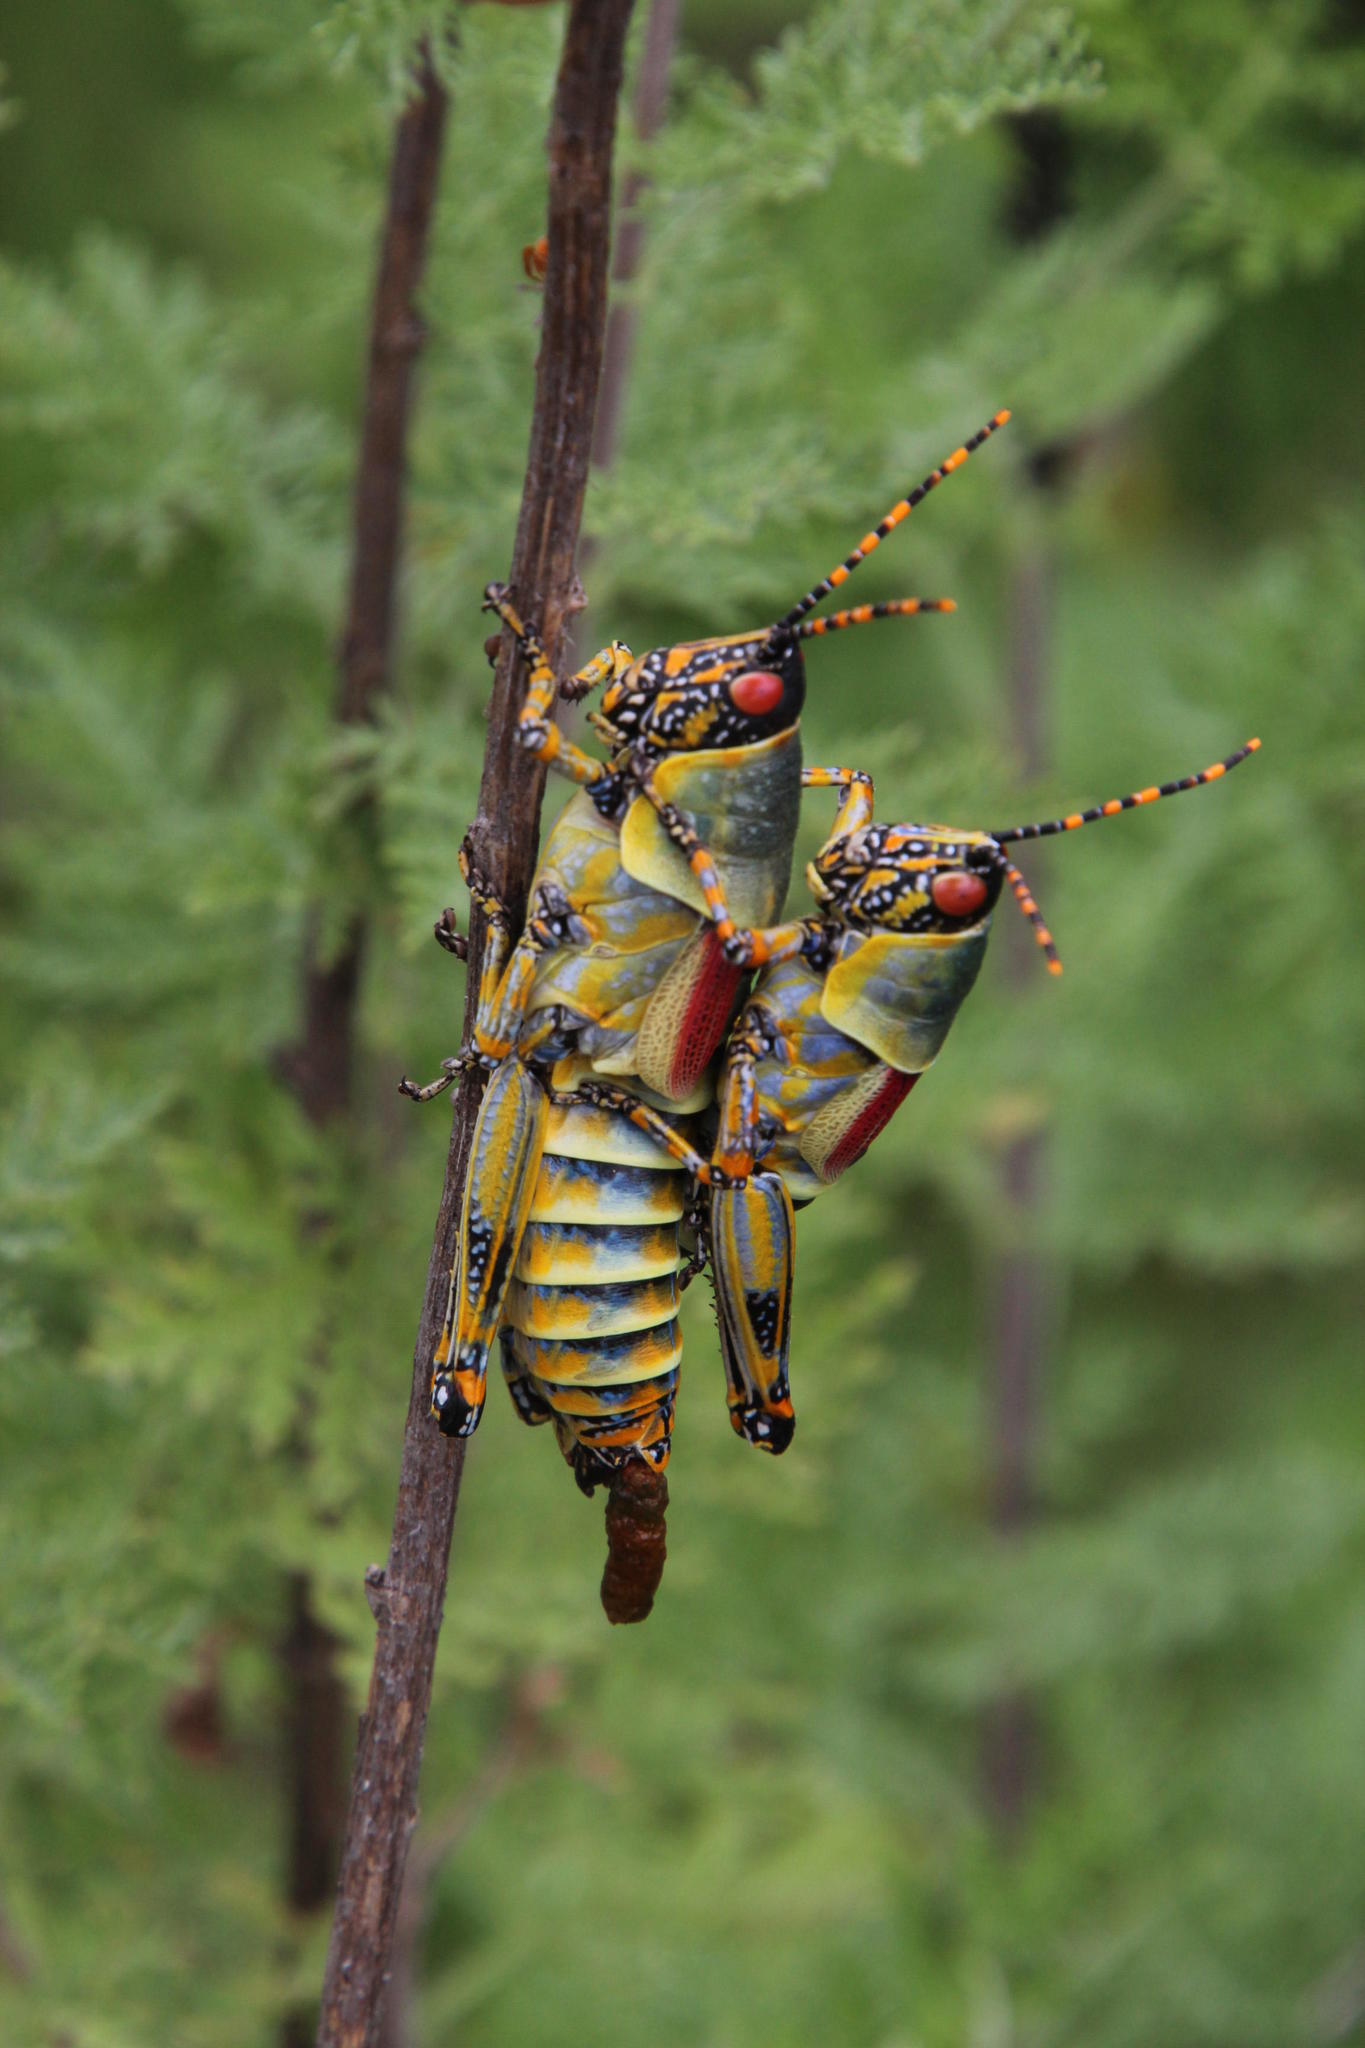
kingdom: Animalia
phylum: Arthropoda
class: Insecta
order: Orthoptera
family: Pyrgomorphidae
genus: Zonocerus
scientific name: Zonocerus elegans
